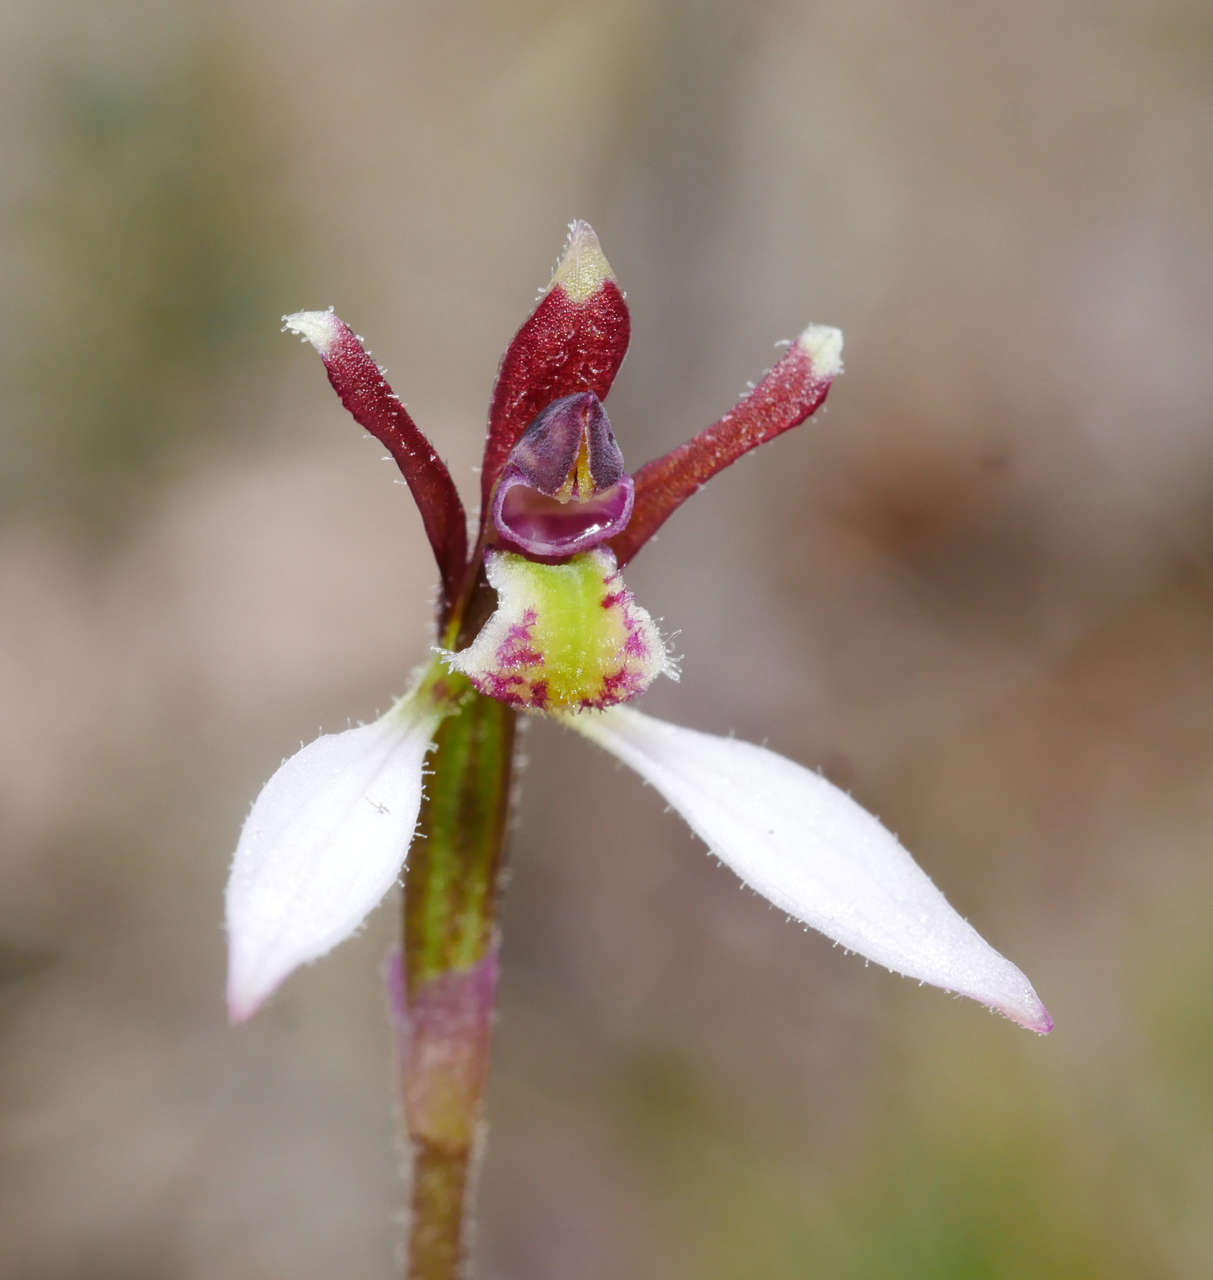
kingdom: Plantae
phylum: Tracheophyta
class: Liliopsida
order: Asparagales
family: Orchidaceae
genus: Eriochilus
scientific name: Eriochilus cucullatus
